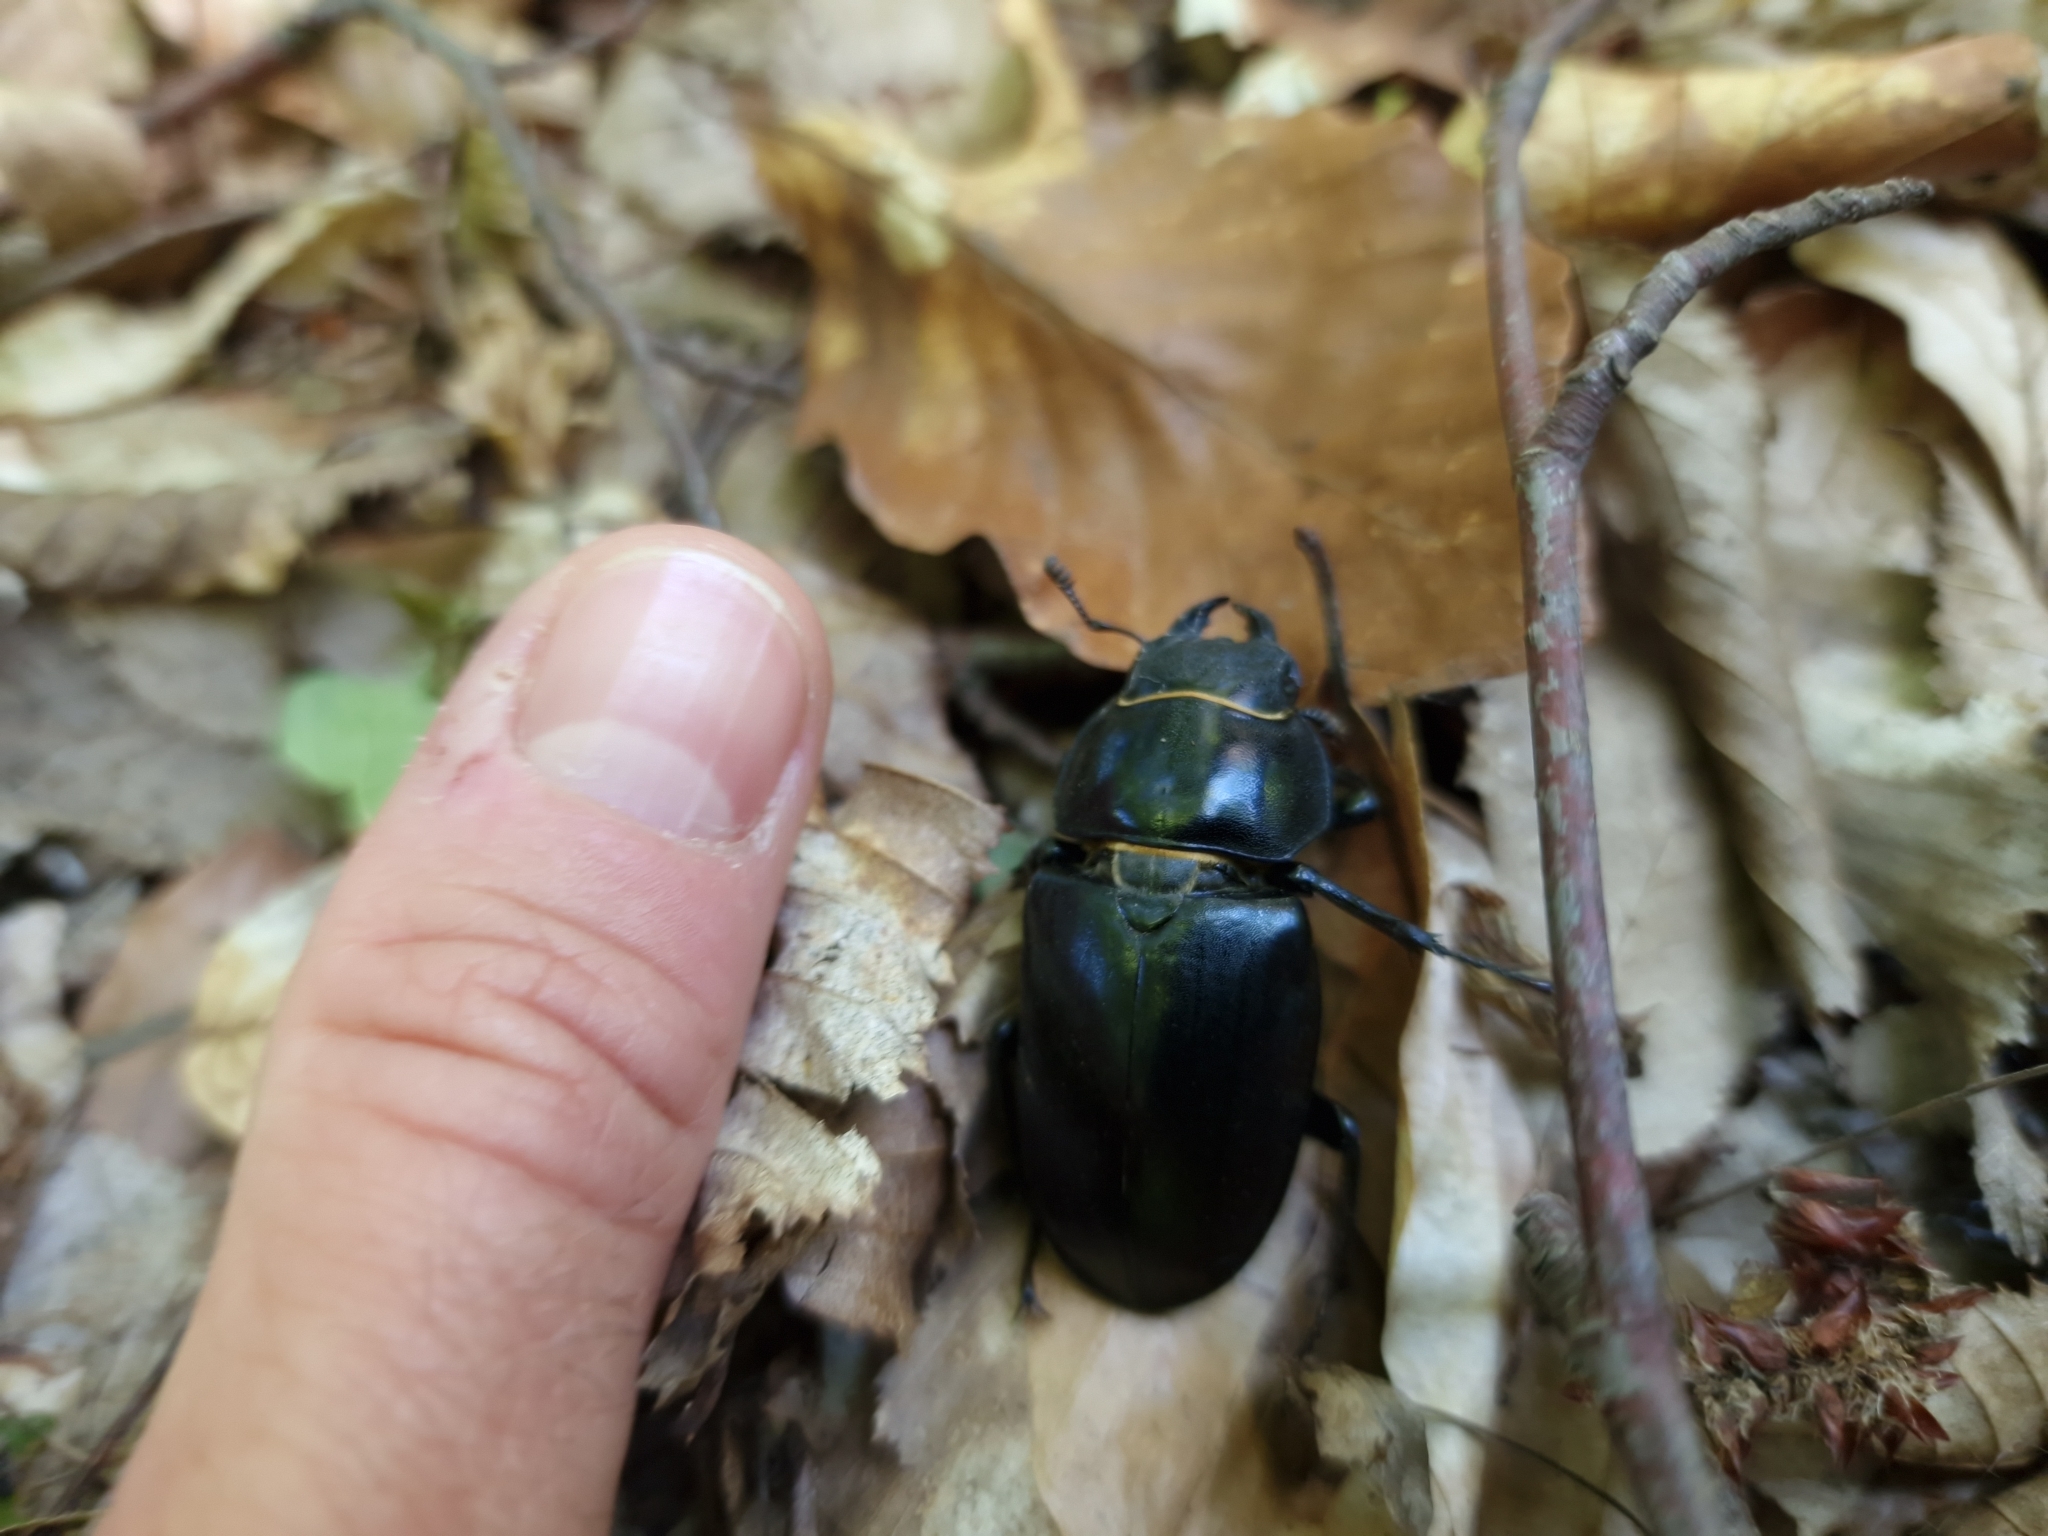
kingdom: Animalia
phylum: Arthropoda
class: Insecta
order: Coleoptera
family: Lucanidae
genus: Lucanus
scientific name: Lucanus cervus
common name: Stag beetle
